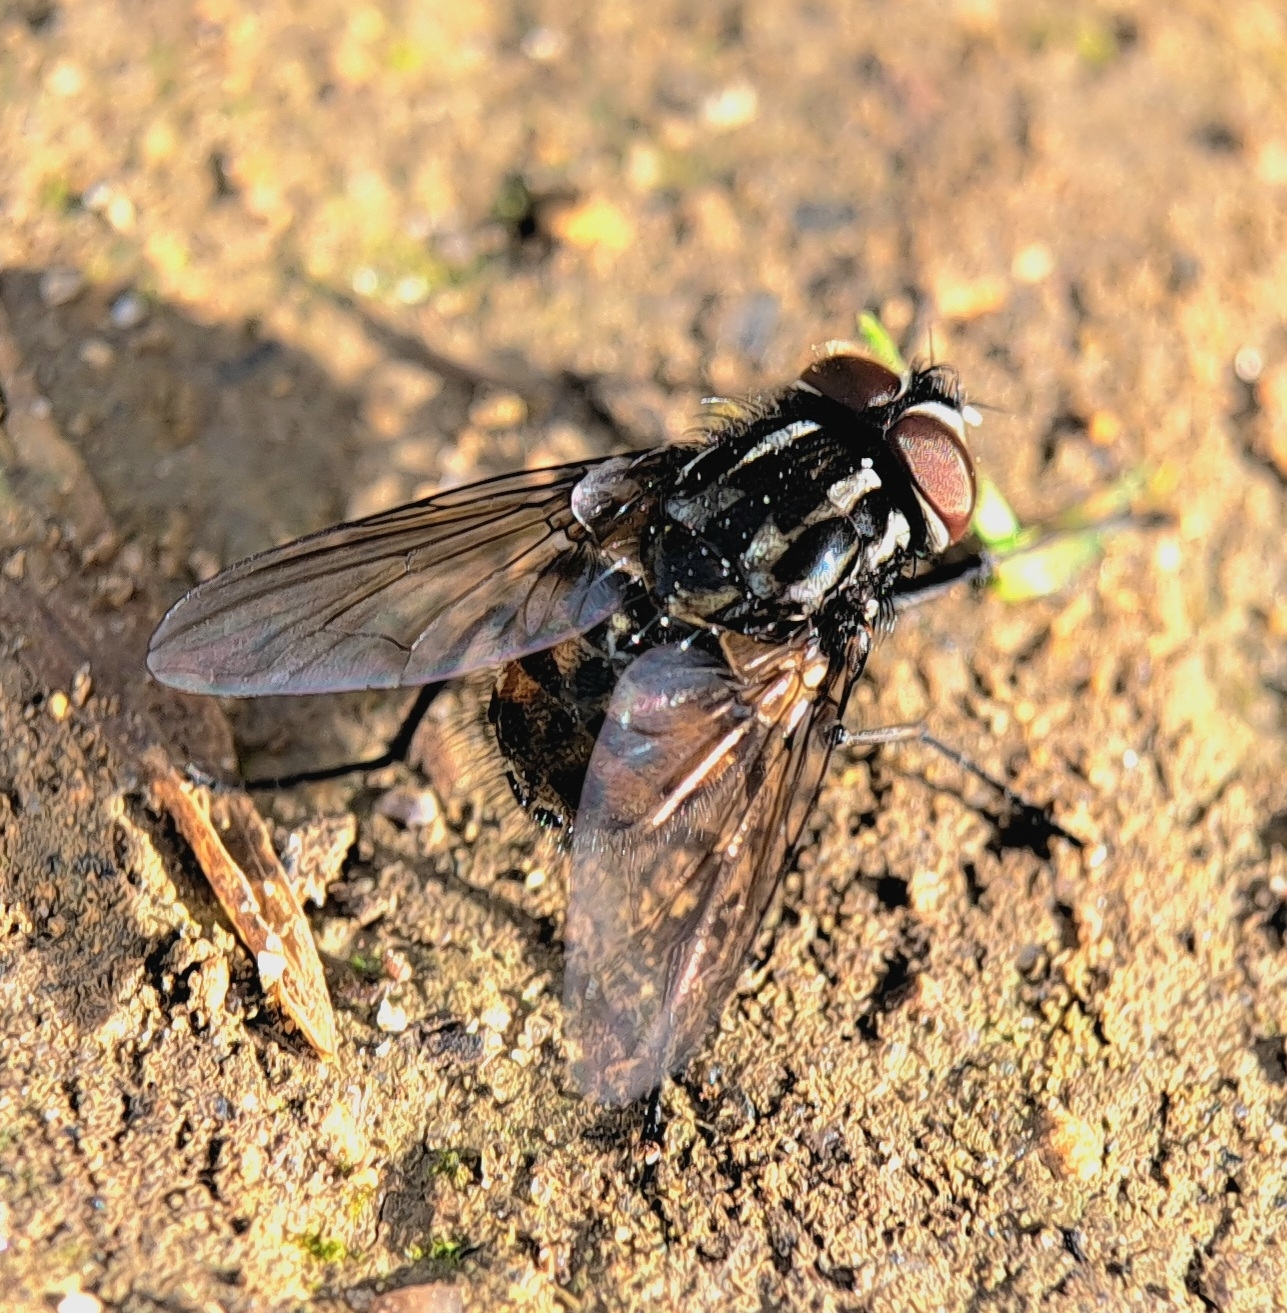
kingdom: Animalia
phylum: Arthropoda
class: Insecta
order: Diptera
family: Muscidae
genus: Graphomya
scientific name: Graphomya maculata
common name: Muscid fly
